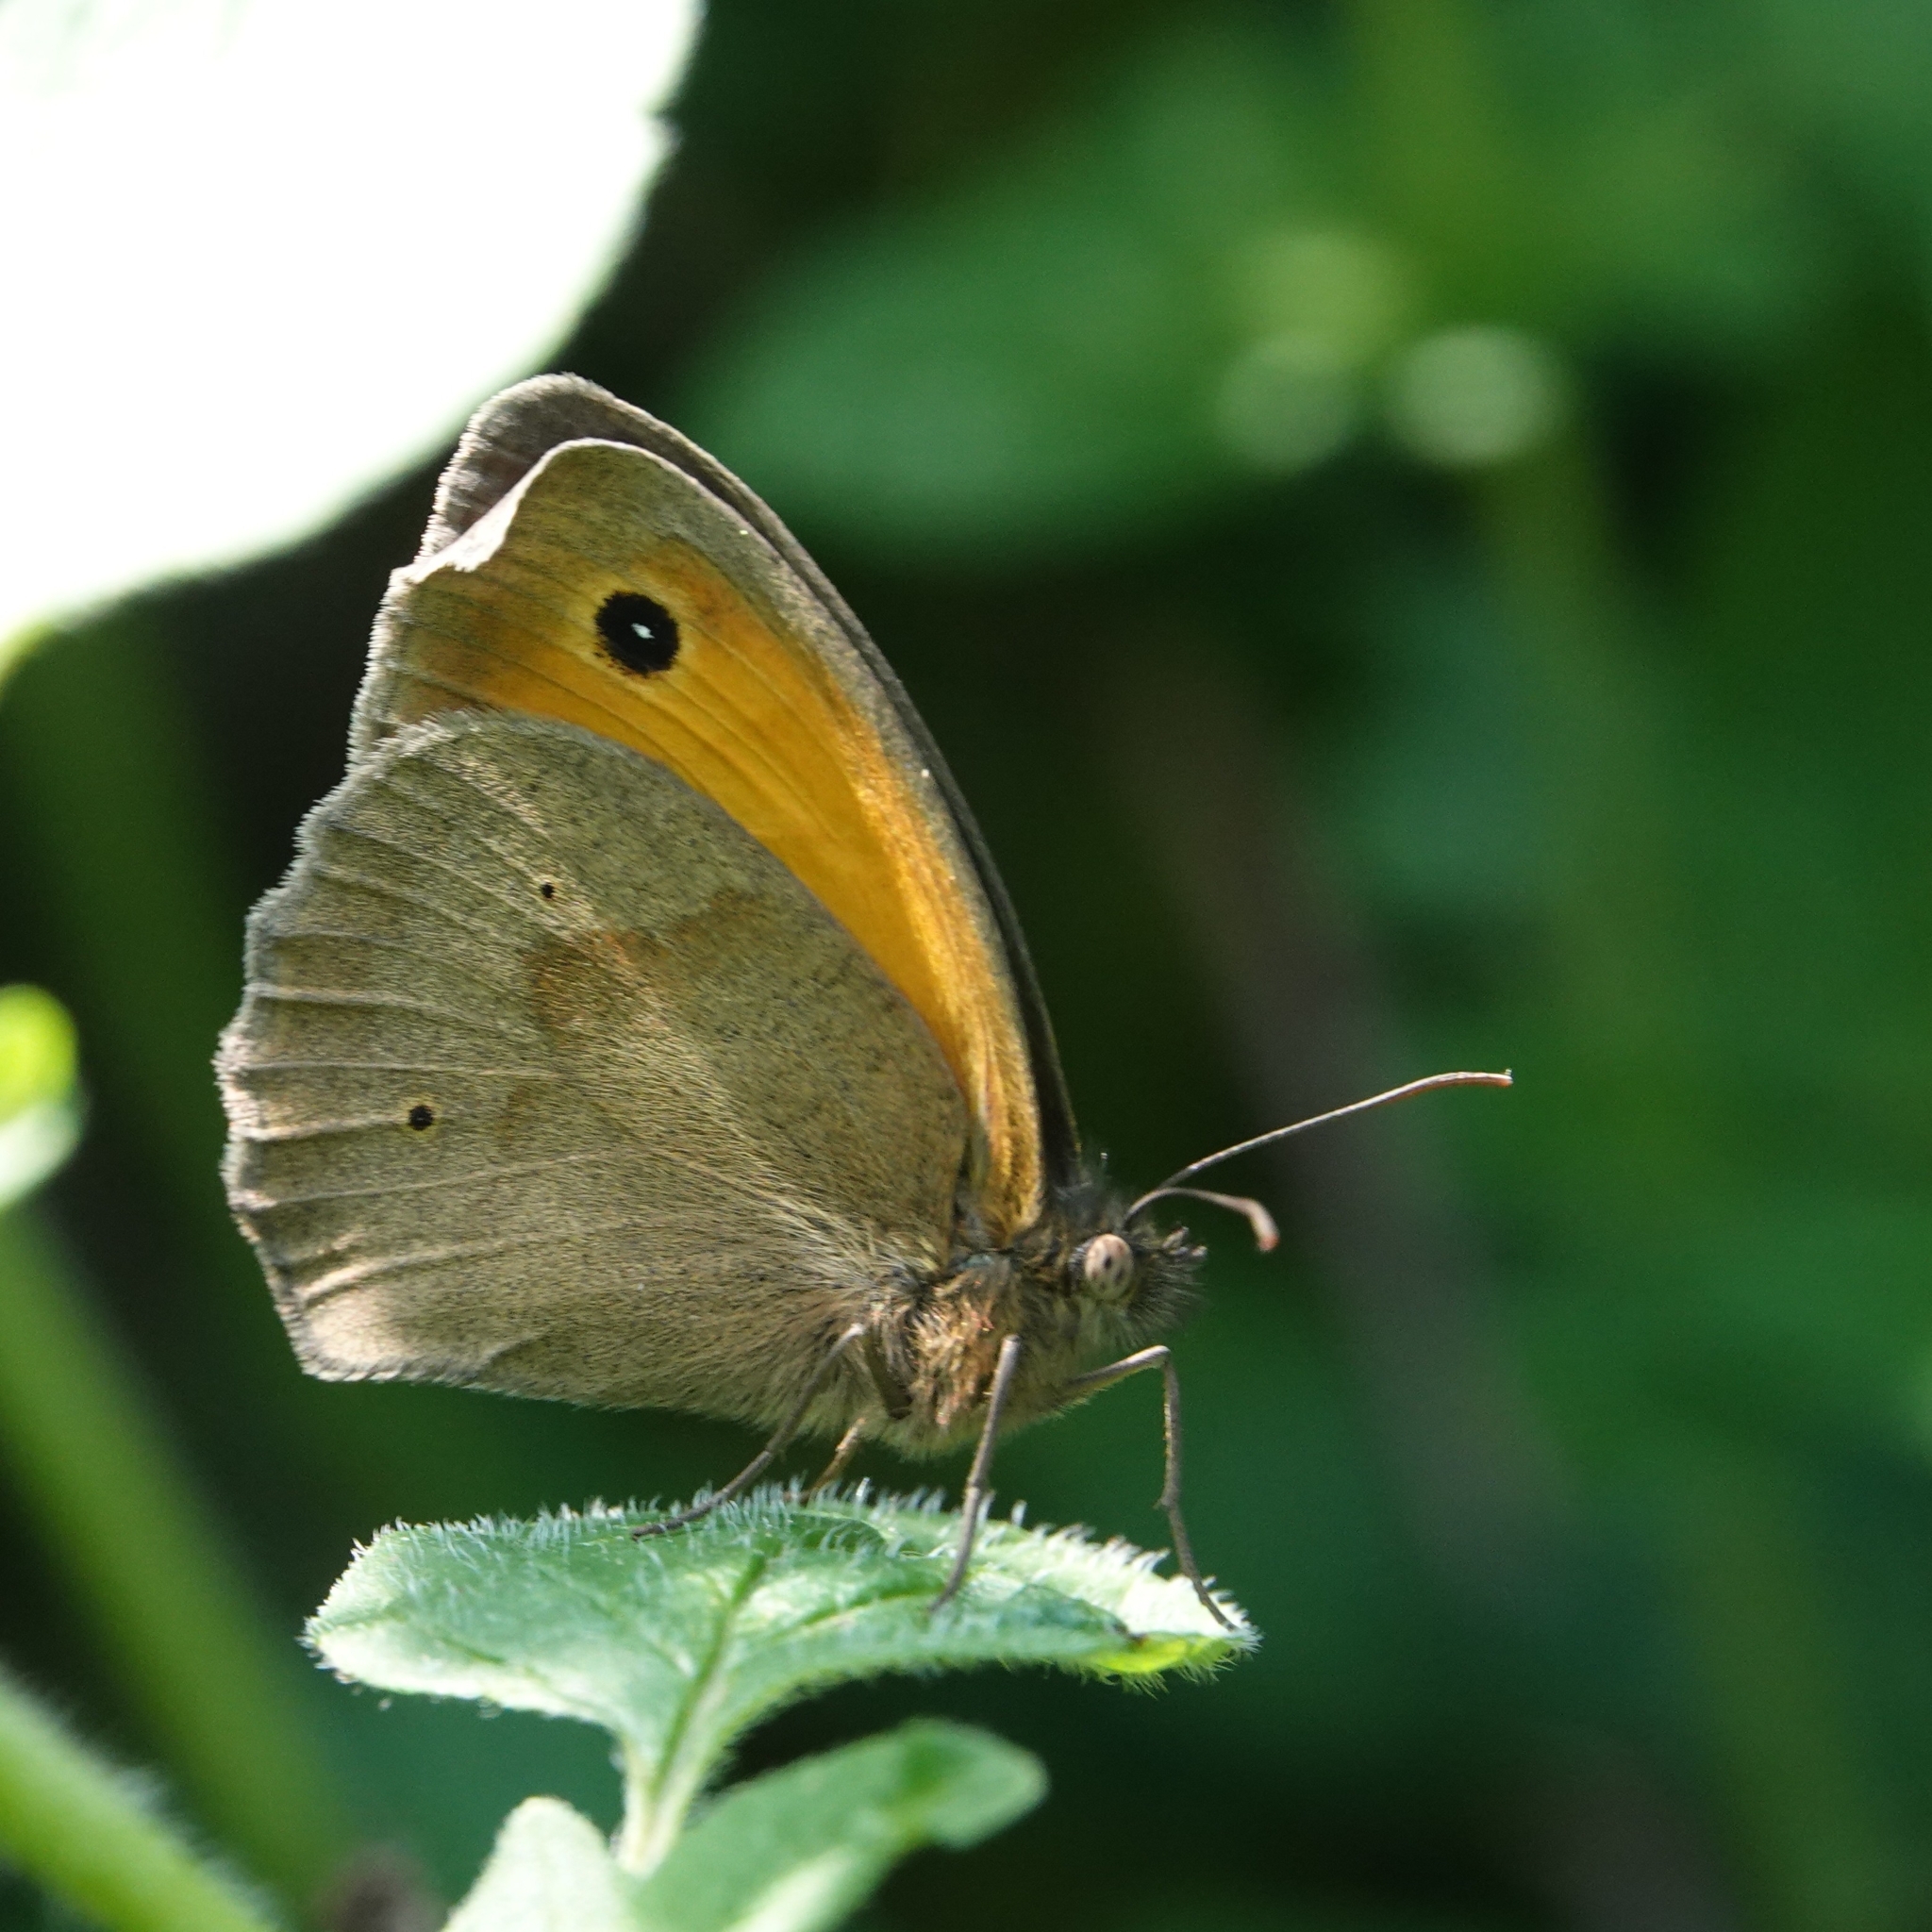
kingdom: Animalia
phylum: Arthropoda
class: Insecta
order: Lepidoptera
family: Nymphalidae
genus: Maniola
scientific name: Maniola jurtina
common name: Meadow brown
